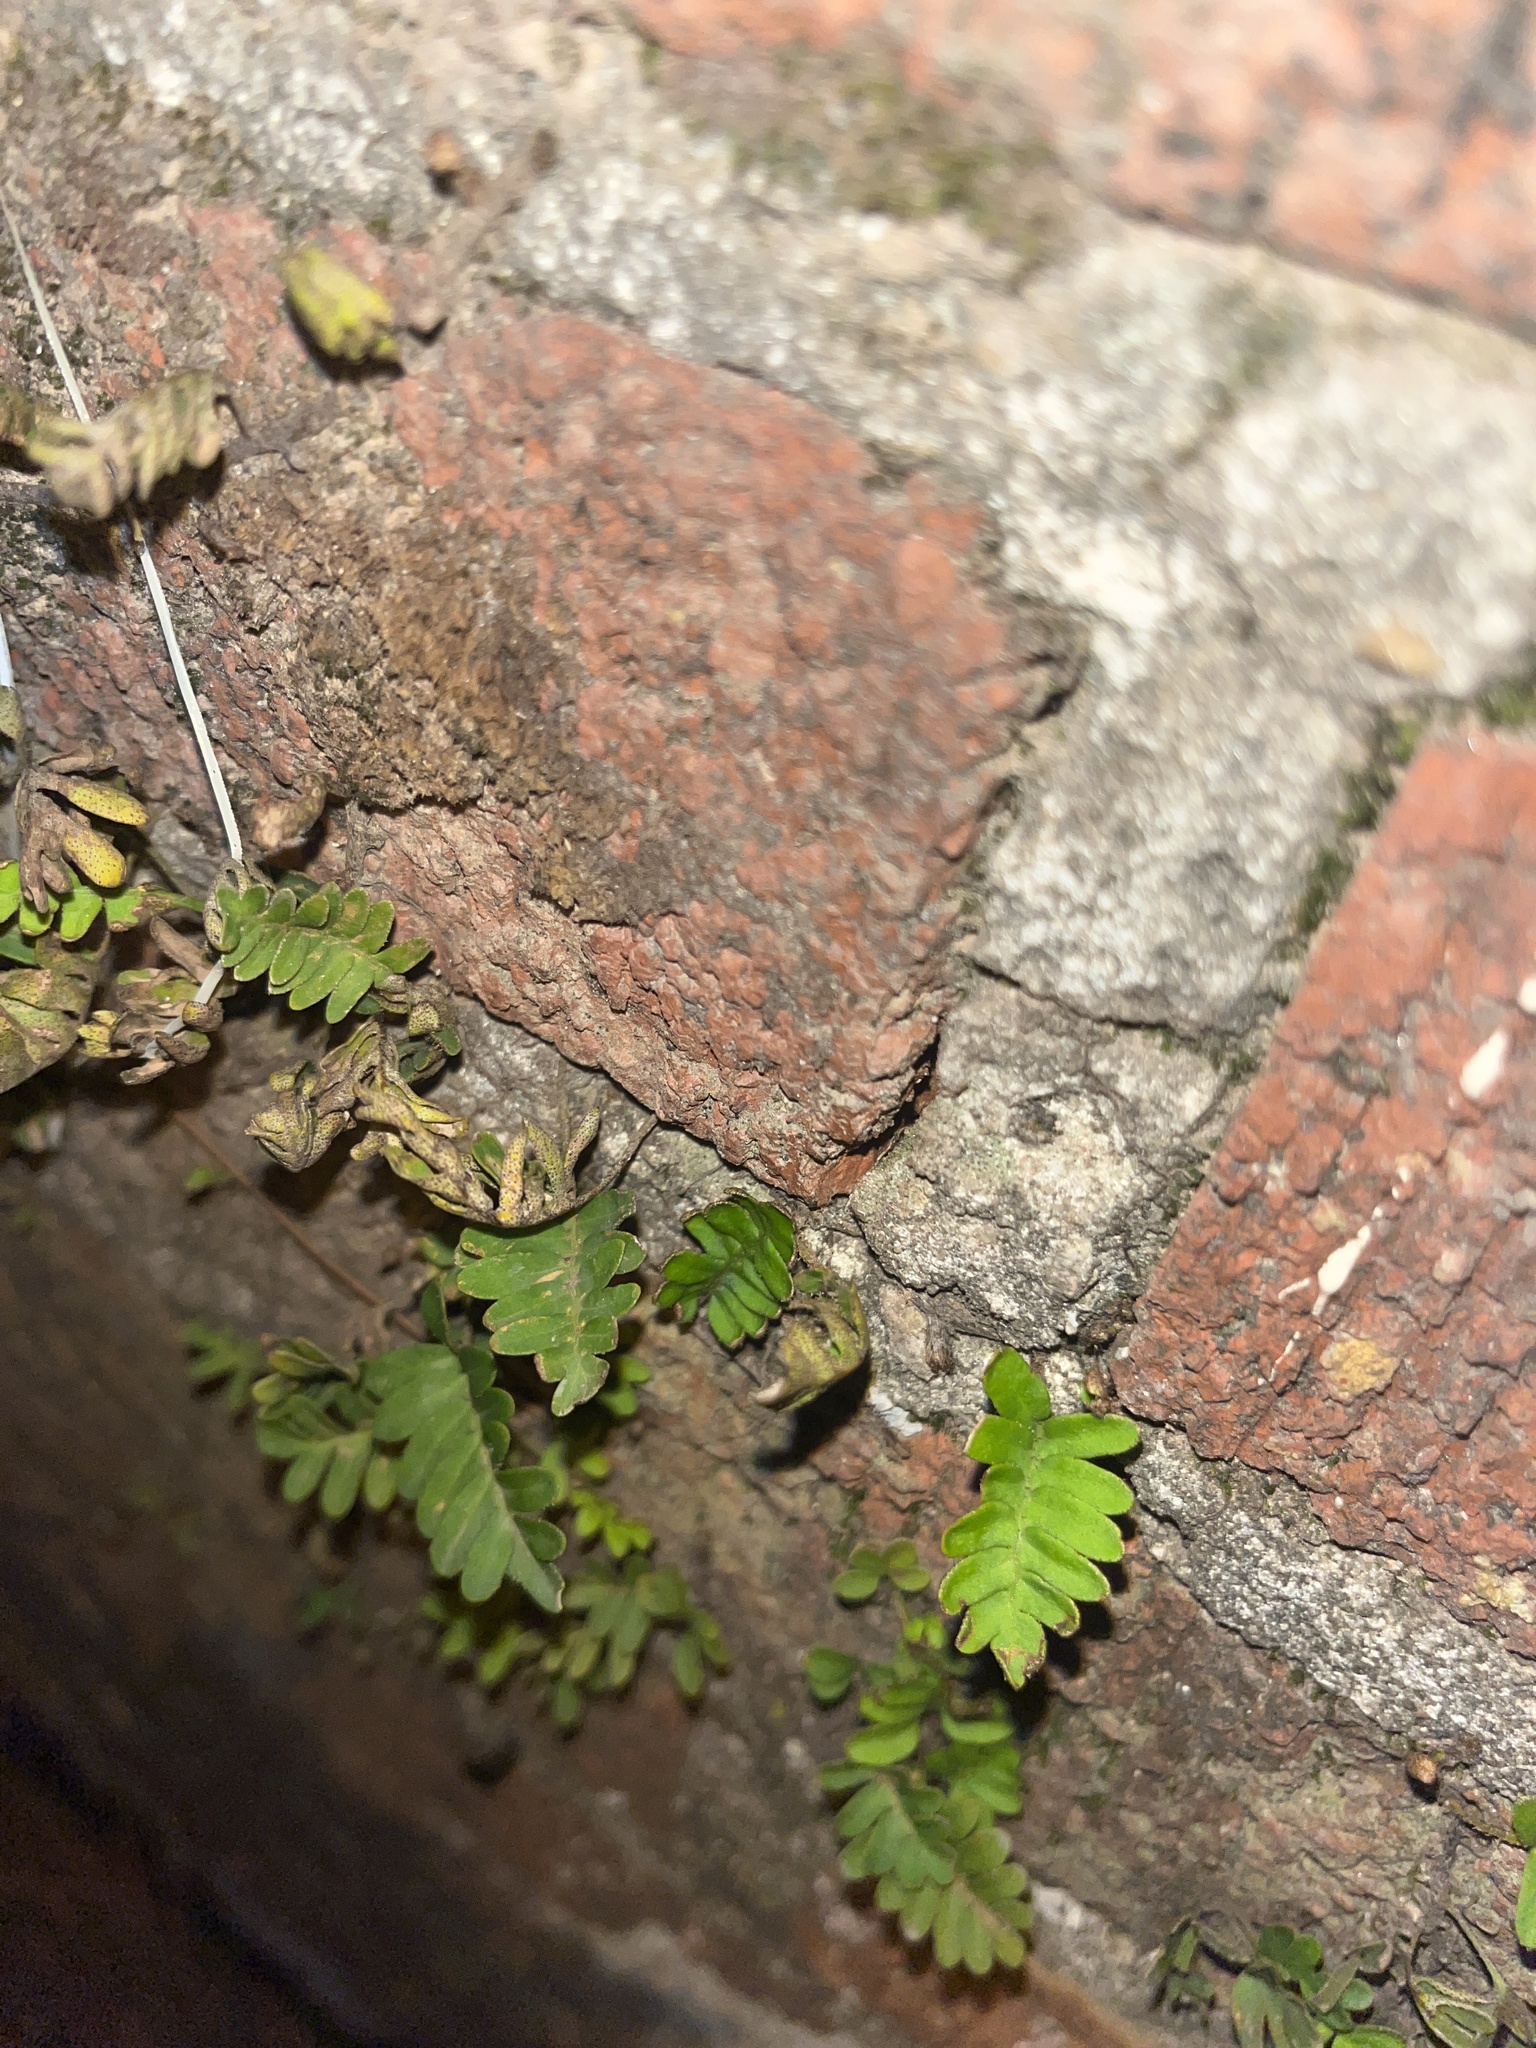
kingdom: Plantae
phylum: Tracheophyta
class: Polypodiopsida
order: Polypodiales
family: Polypodiaceae
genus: Pleopeltis
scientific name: Pleopeltis michauxiana
